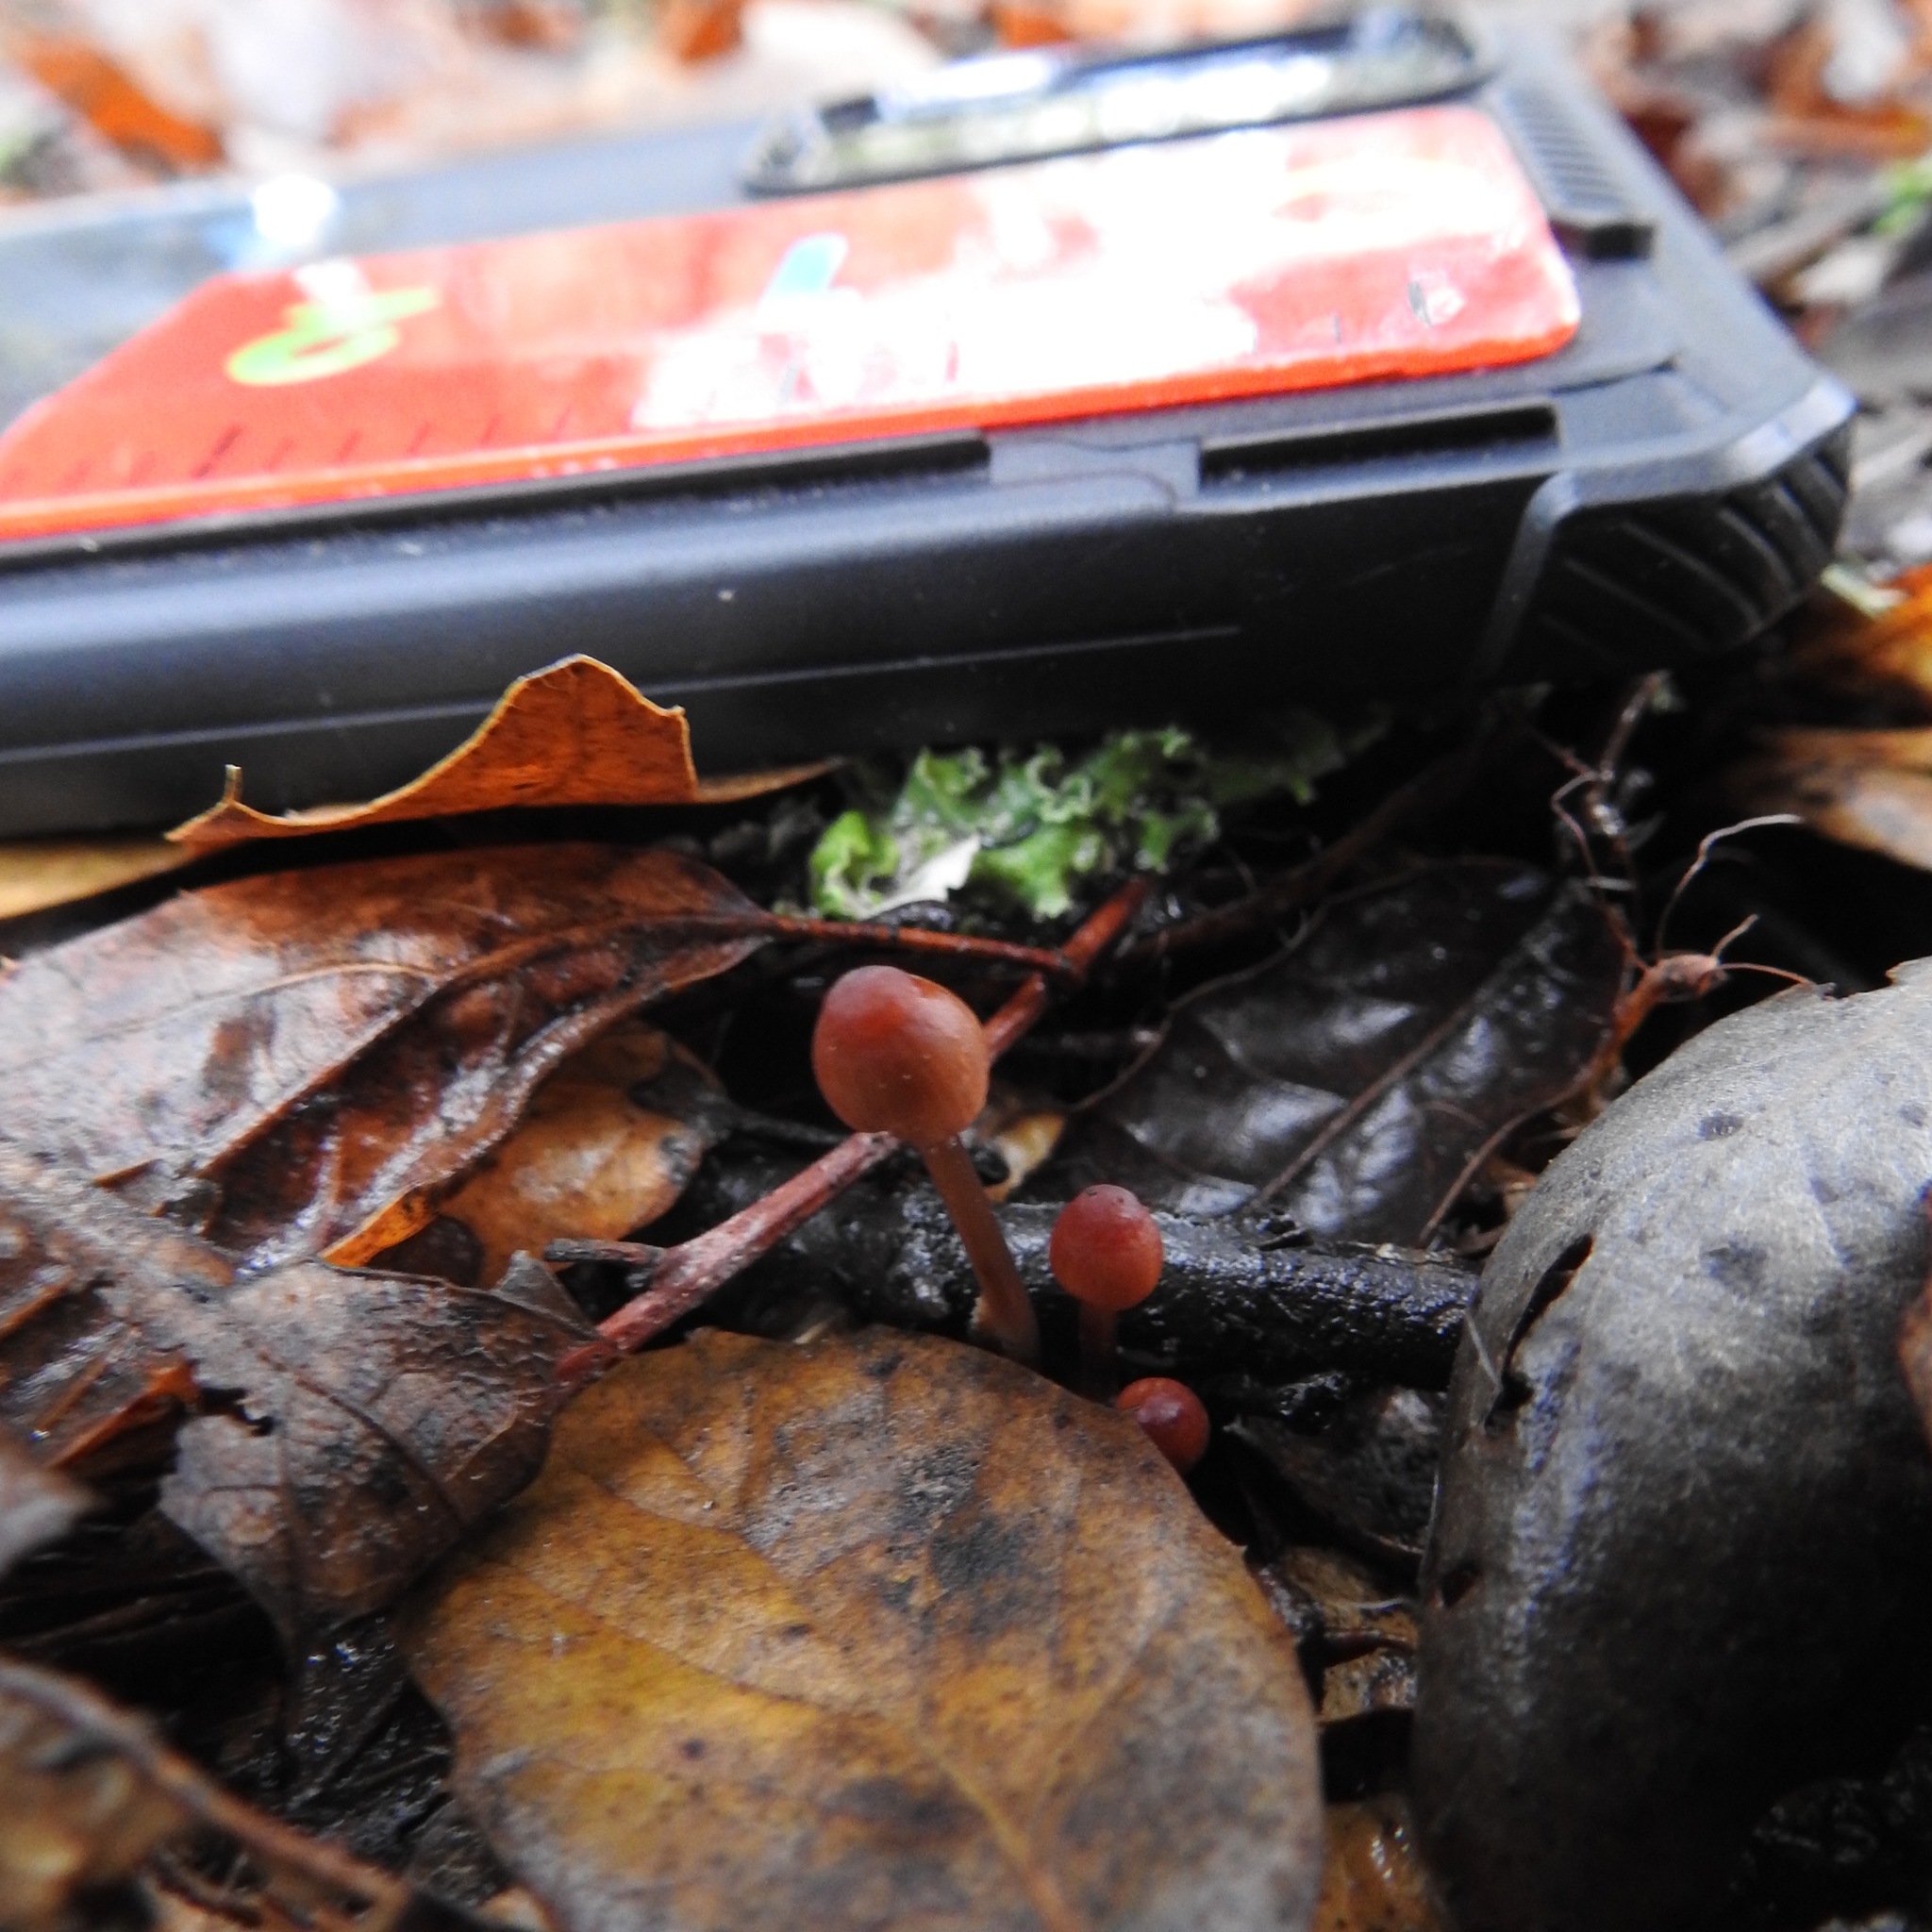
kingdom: Fungi
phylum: Basidiomycota
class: Agaricomycetes
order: Agaricales
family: Mycenaceae
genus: Mycena
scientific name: Mycena
